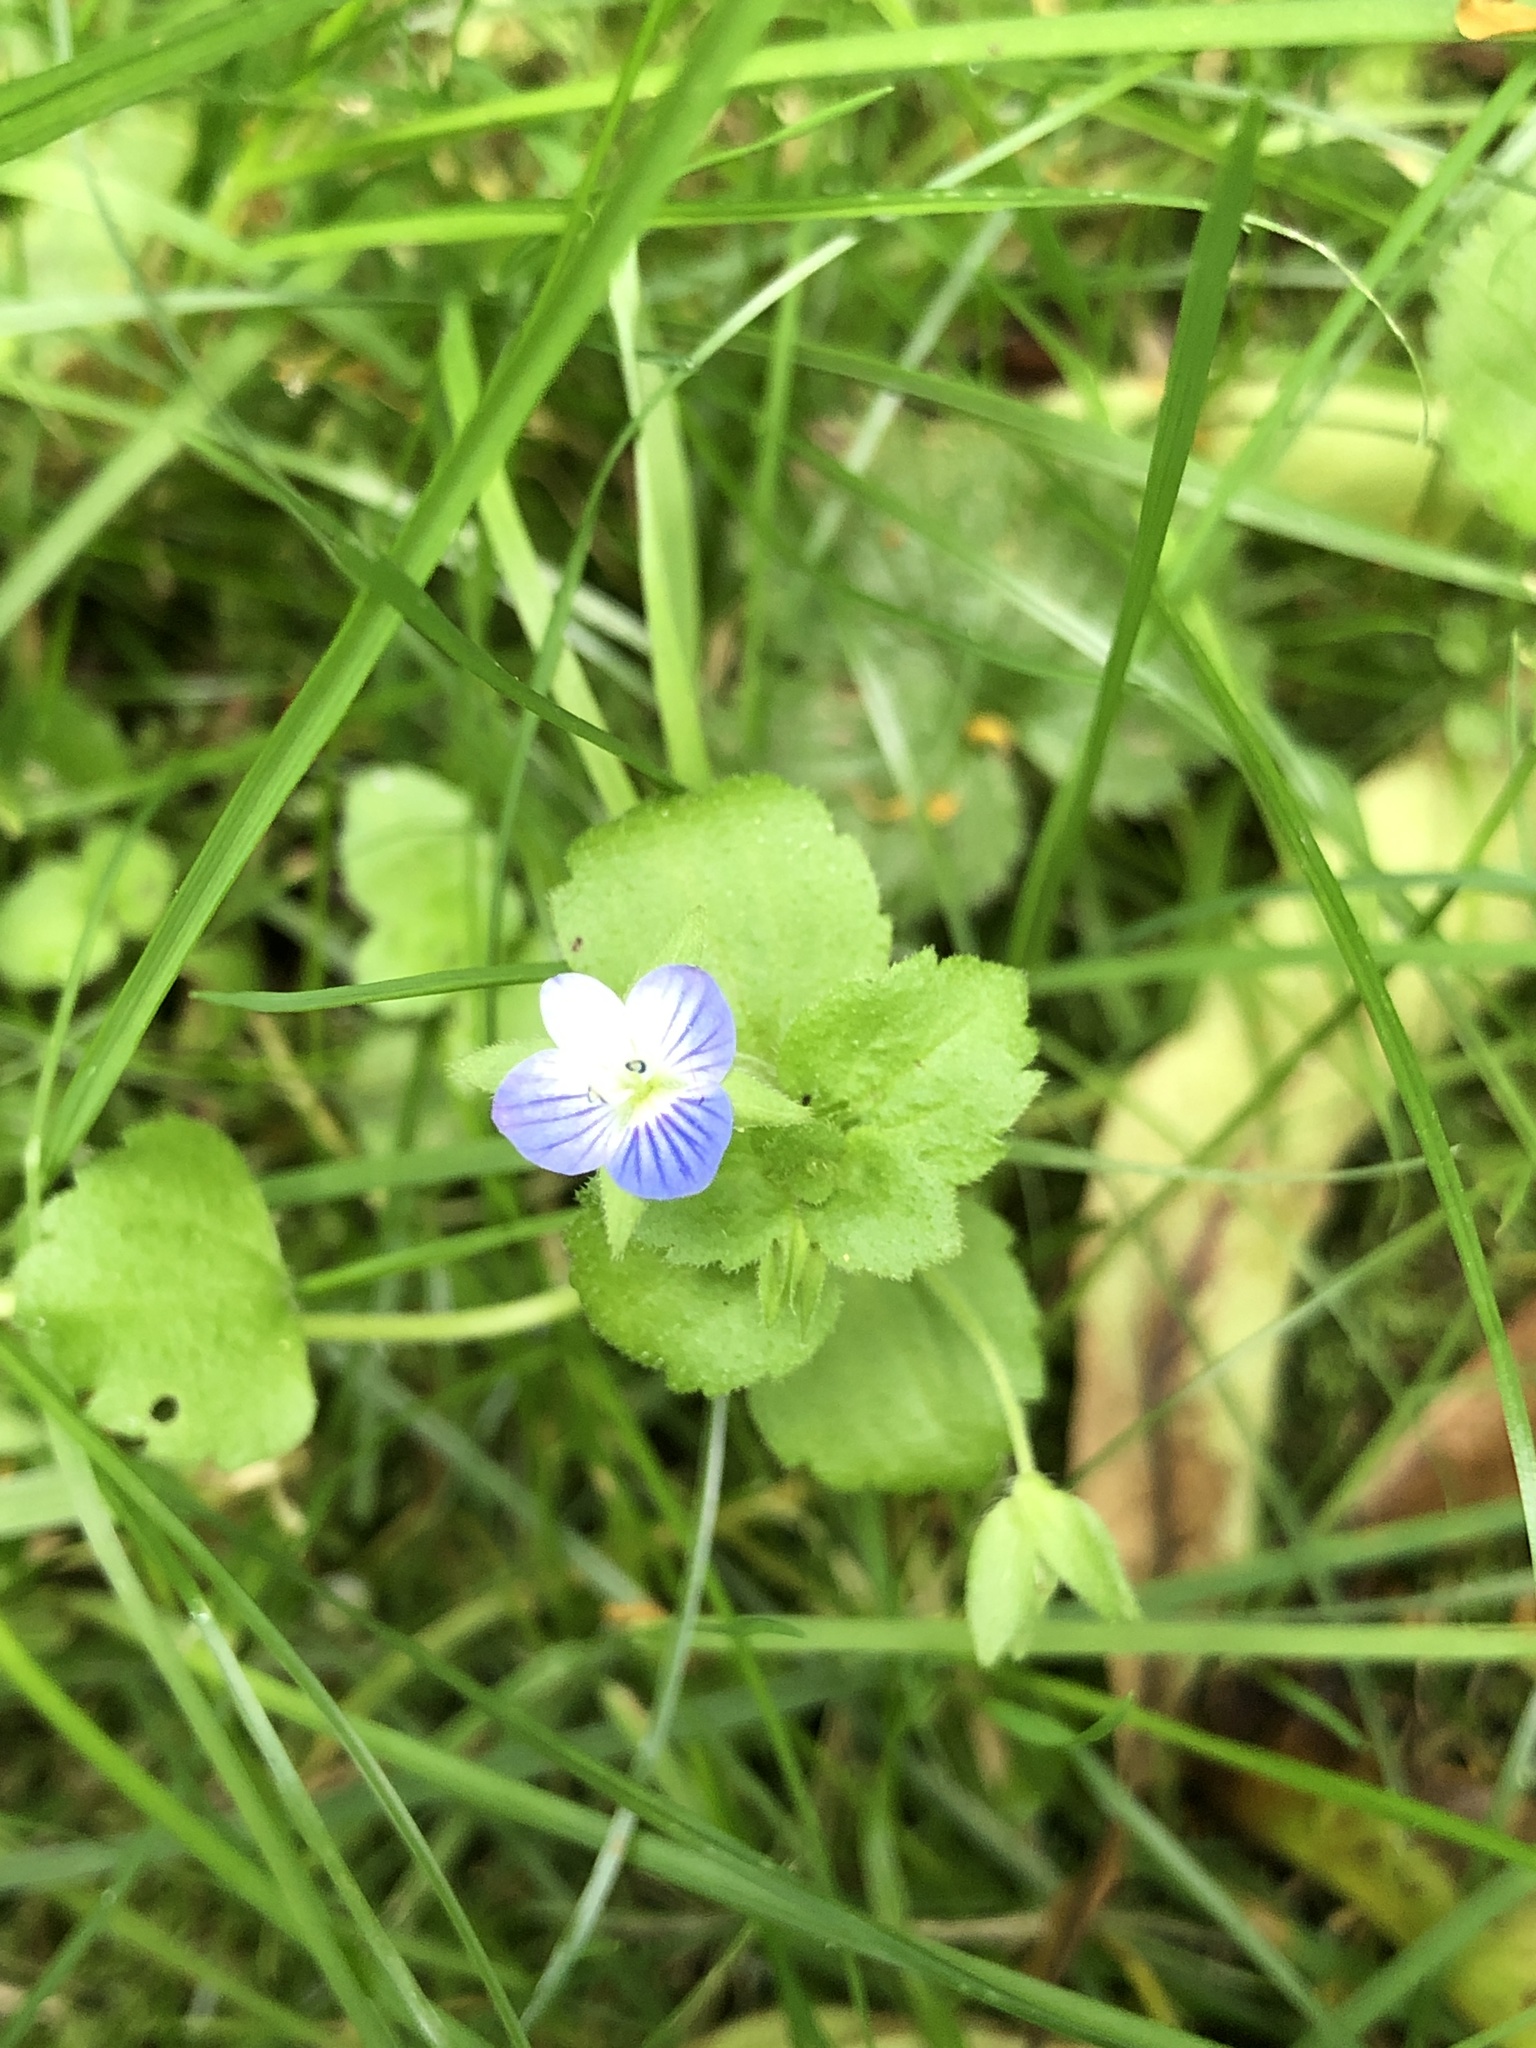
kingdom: Plantae
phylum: Tracheophyta
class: Magnoliopsida
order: Lamiales
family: Plantaginaceae
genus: Veronica
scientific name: Veronica persica
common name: Common field-speedwell
